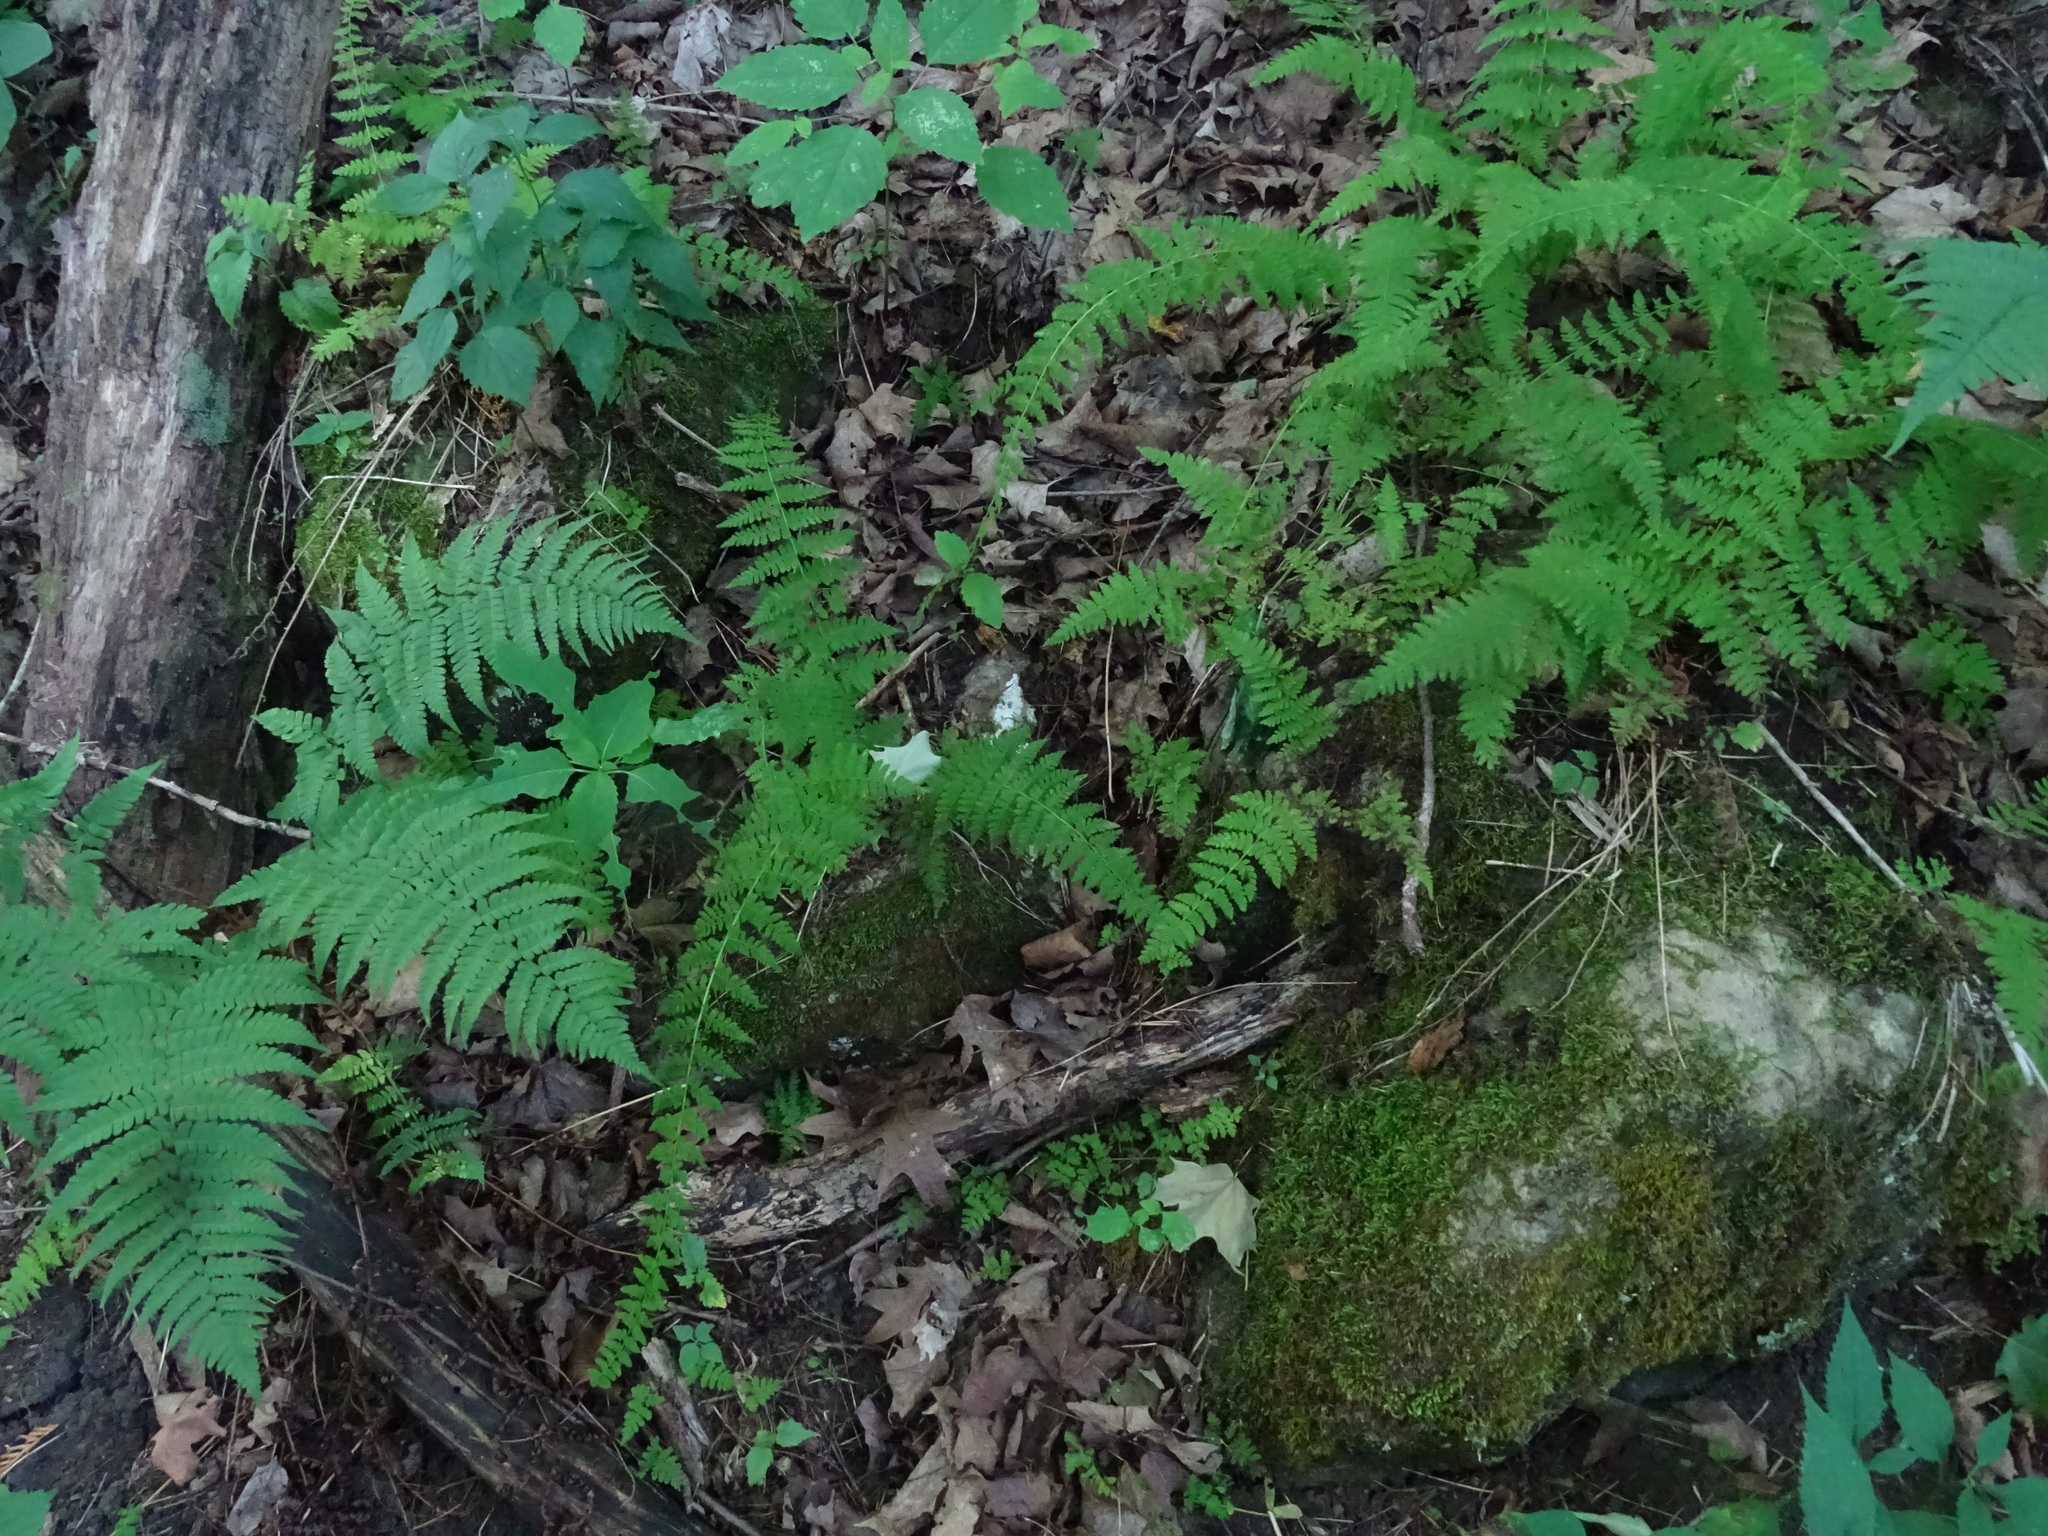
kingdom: Plantae
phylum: Tracheophyta
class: Polypodiopsida
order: Polypodiales
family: Cystopteridaceae
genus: Cystopteris
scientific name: Cystopteris bulbifera
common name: Bulblet bladder fern
